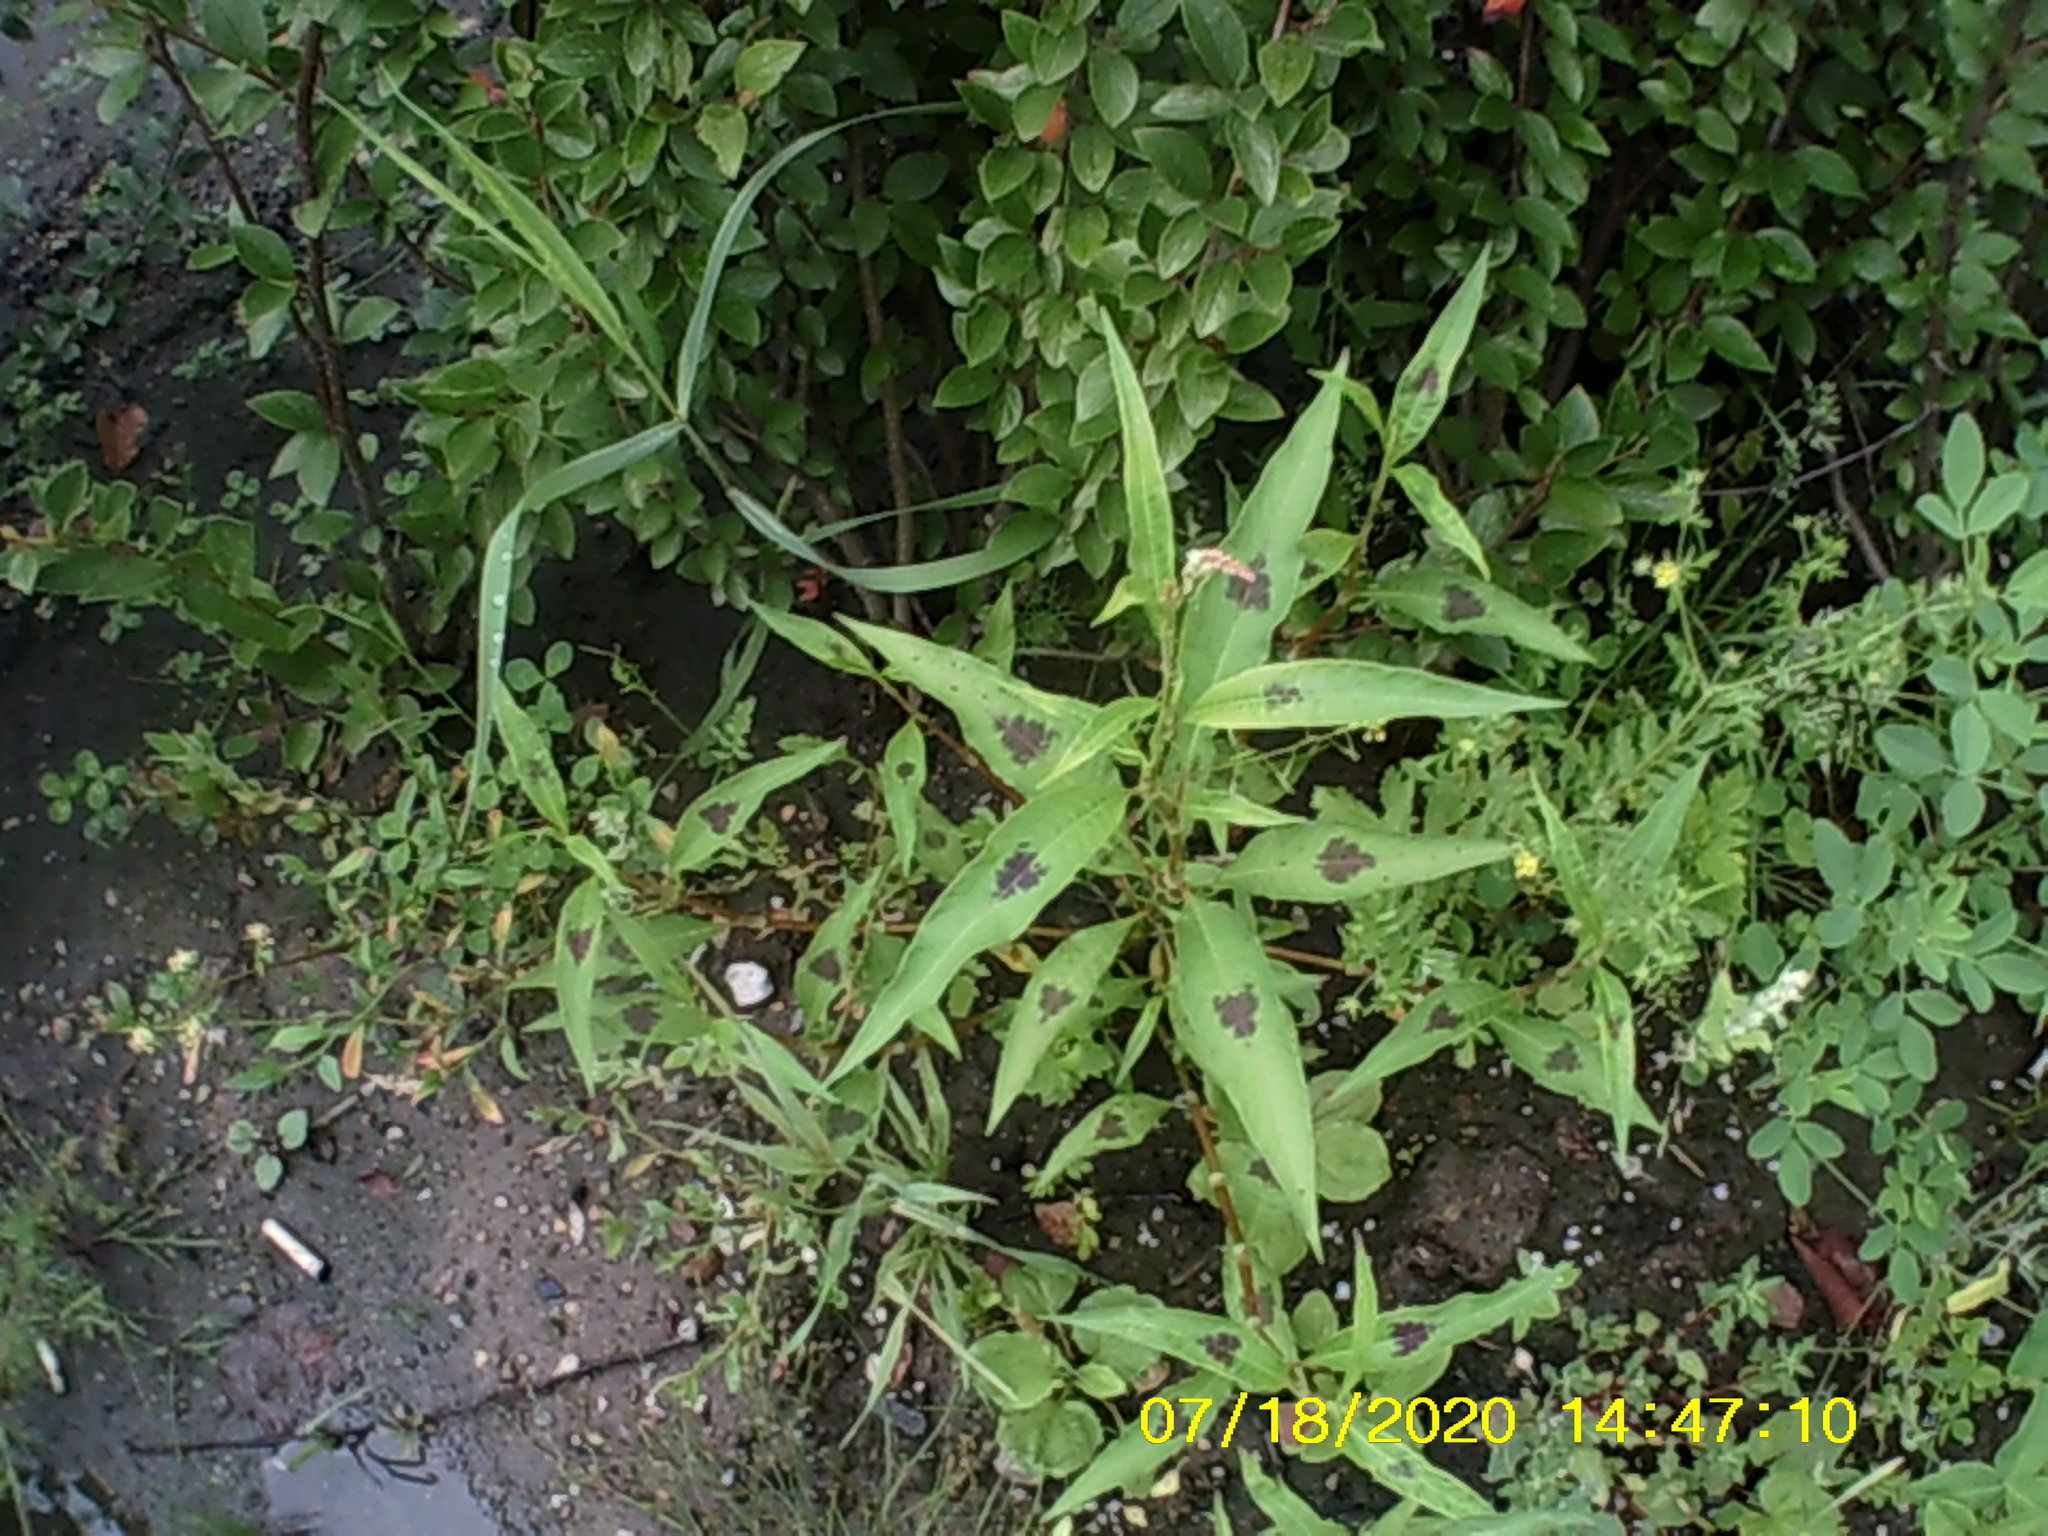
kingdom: Plantae
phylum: Tracheophyta
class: Magnoliopsida
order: Caryophyllales
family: Polygonaceae
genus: Persicaria
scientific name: Persicaria maculosa
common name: Redshank
